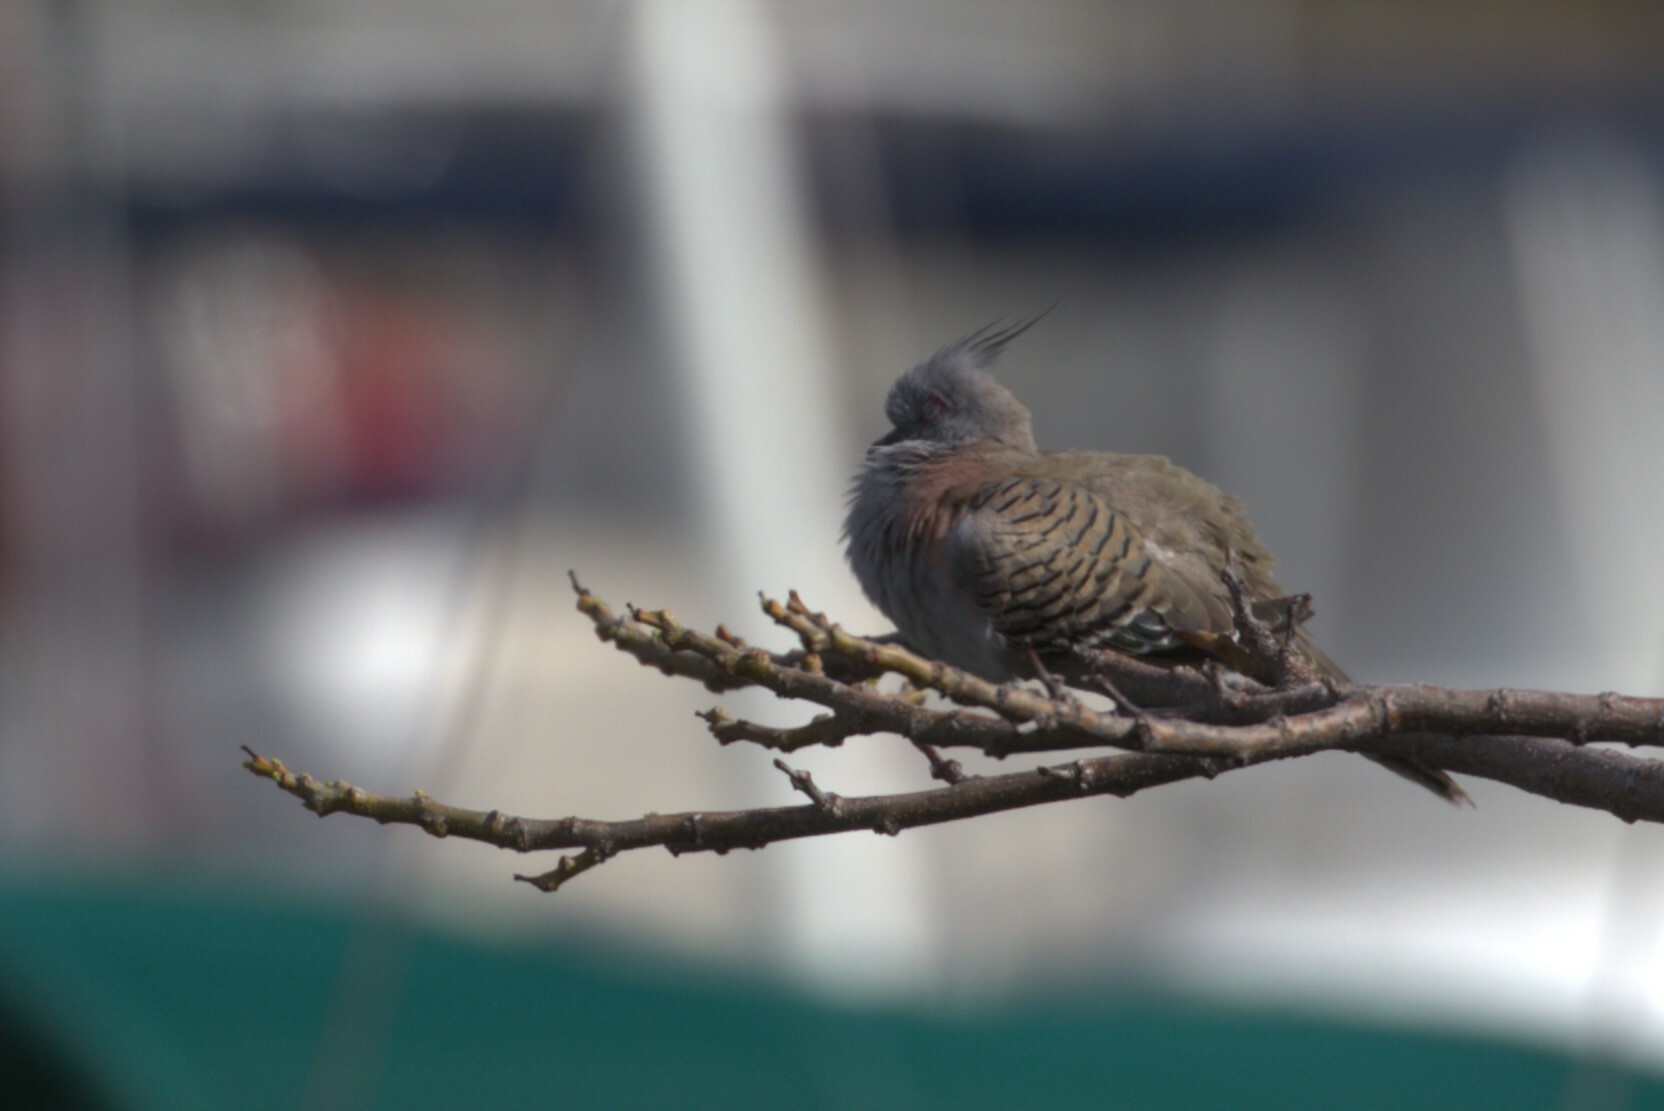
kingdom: Animalia
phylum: Chordata
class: Aves
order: Columbiformes
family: Columbidae
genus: Ocyphaps
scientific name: Ocyphaps lophotes
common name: Crested pigeon
